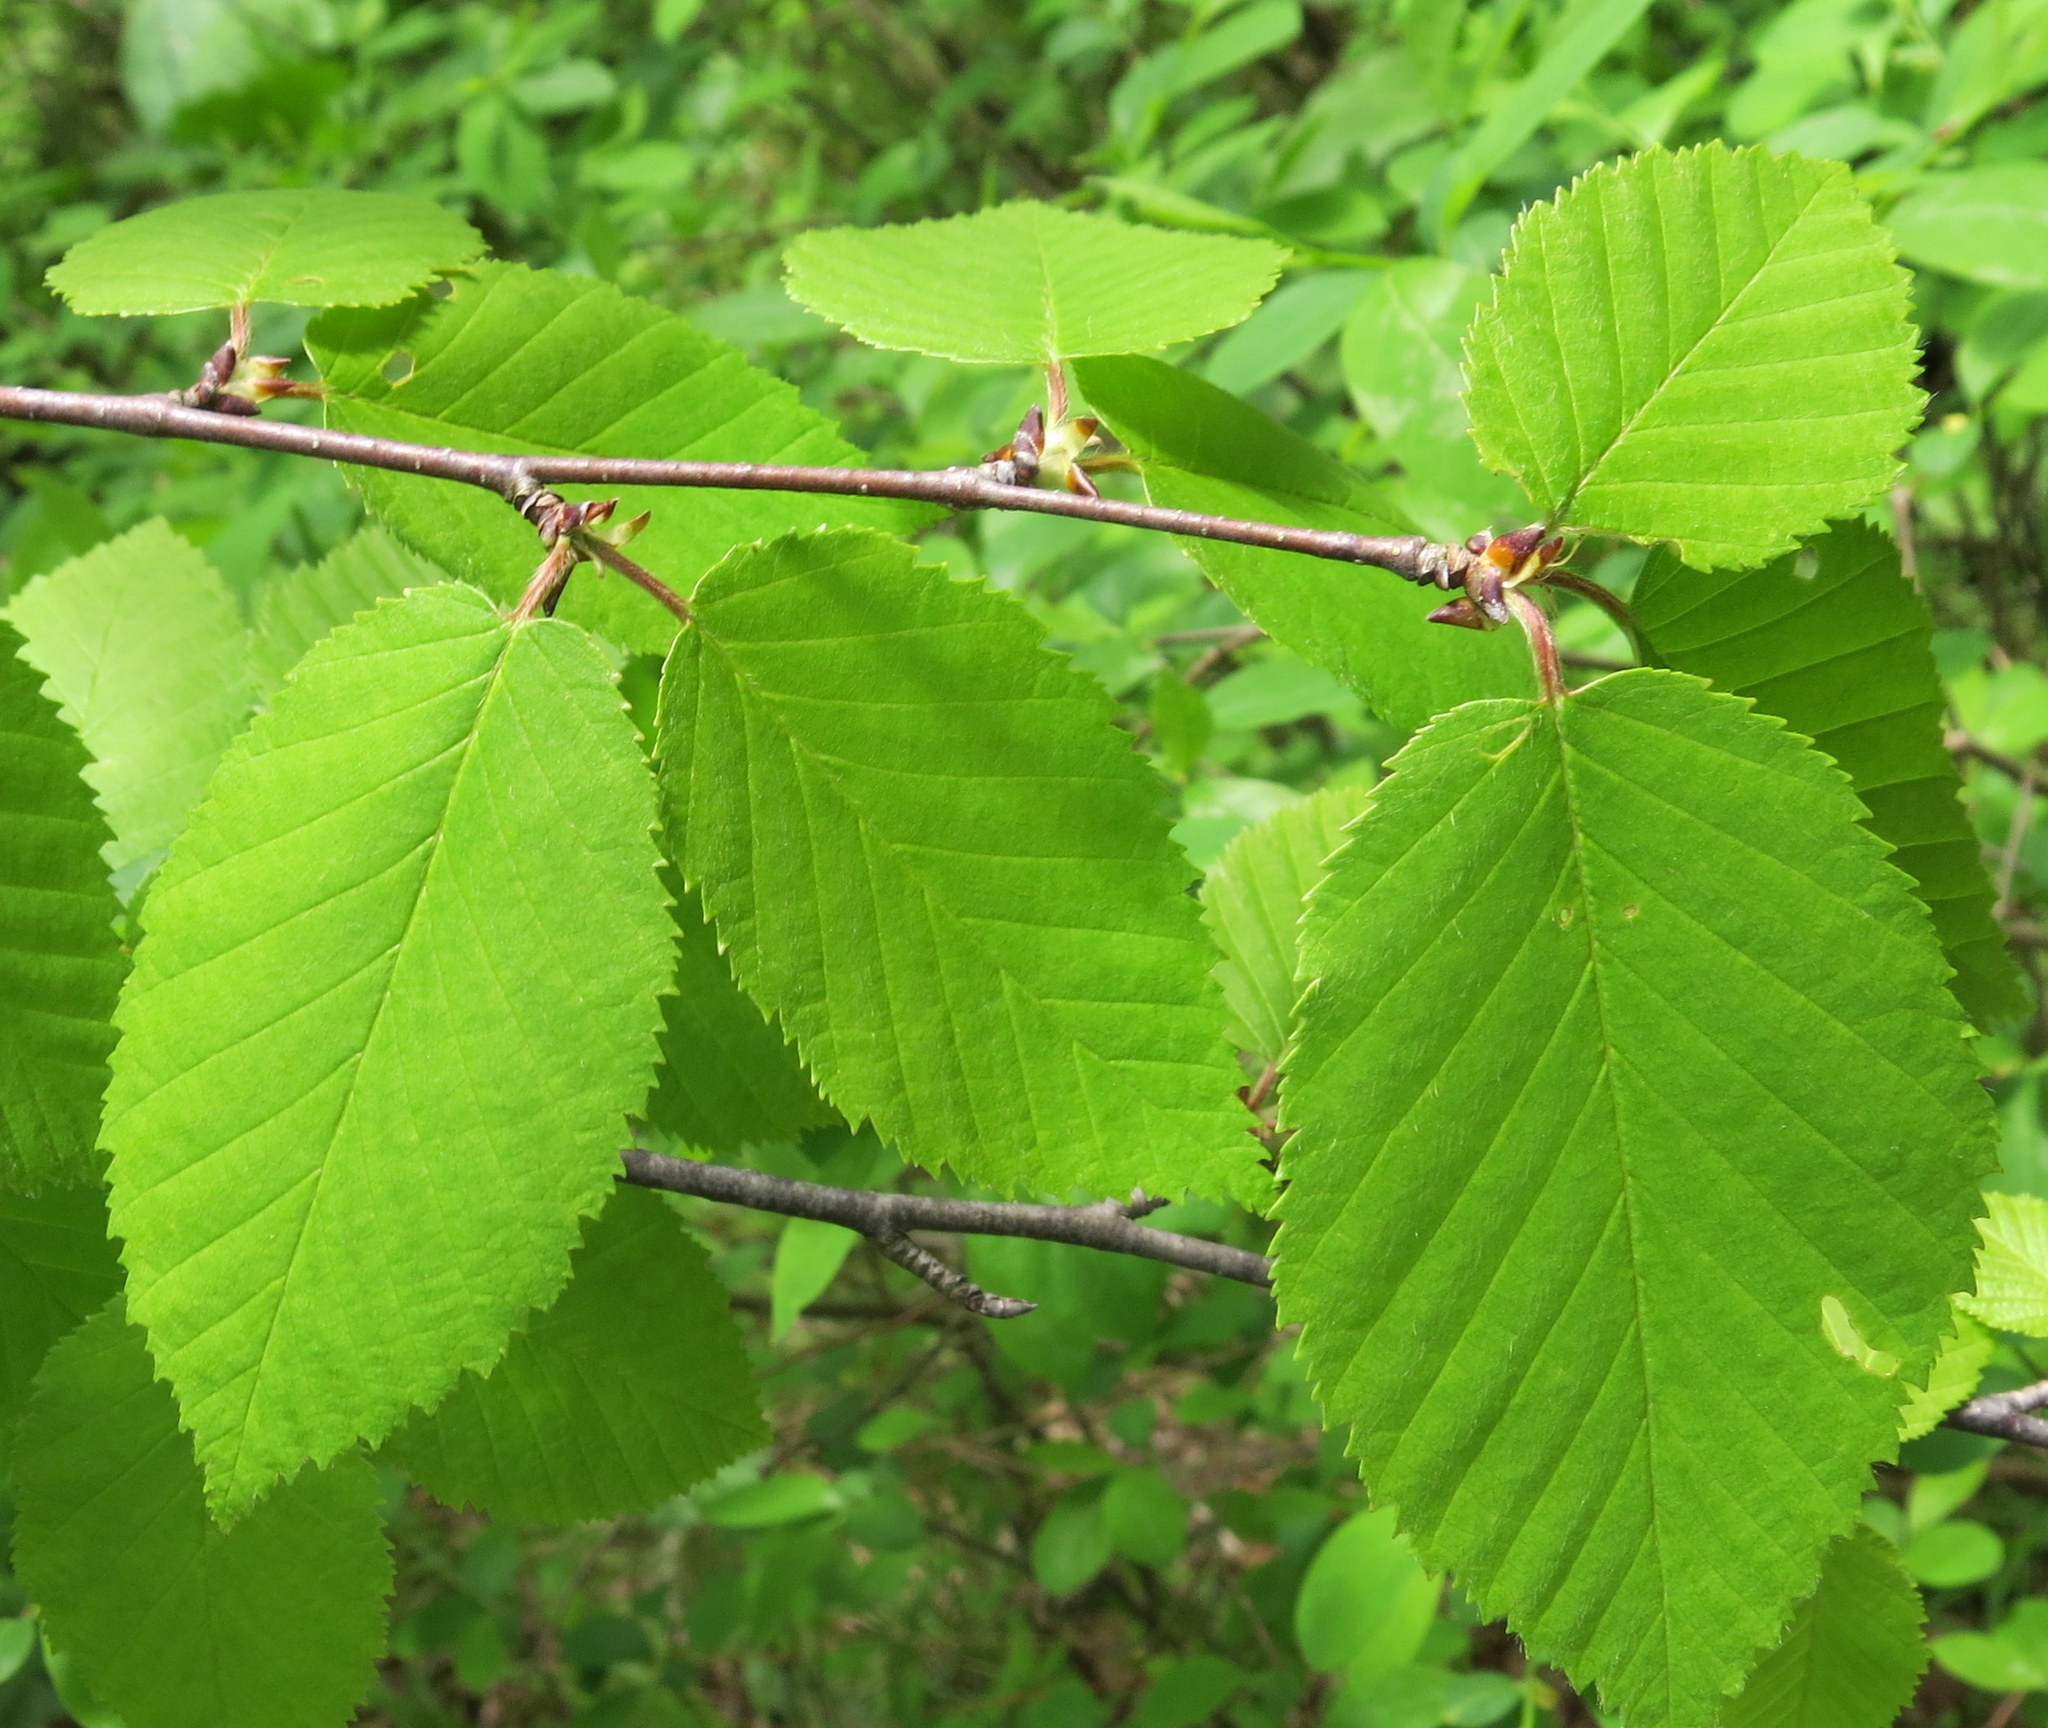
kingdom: Plantae
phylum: Tracheophyta
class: Magnoliopsida
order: Fagales
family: Betulaceae
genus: Betula
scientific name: Betula alleghaniensis
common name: Yellow birch
